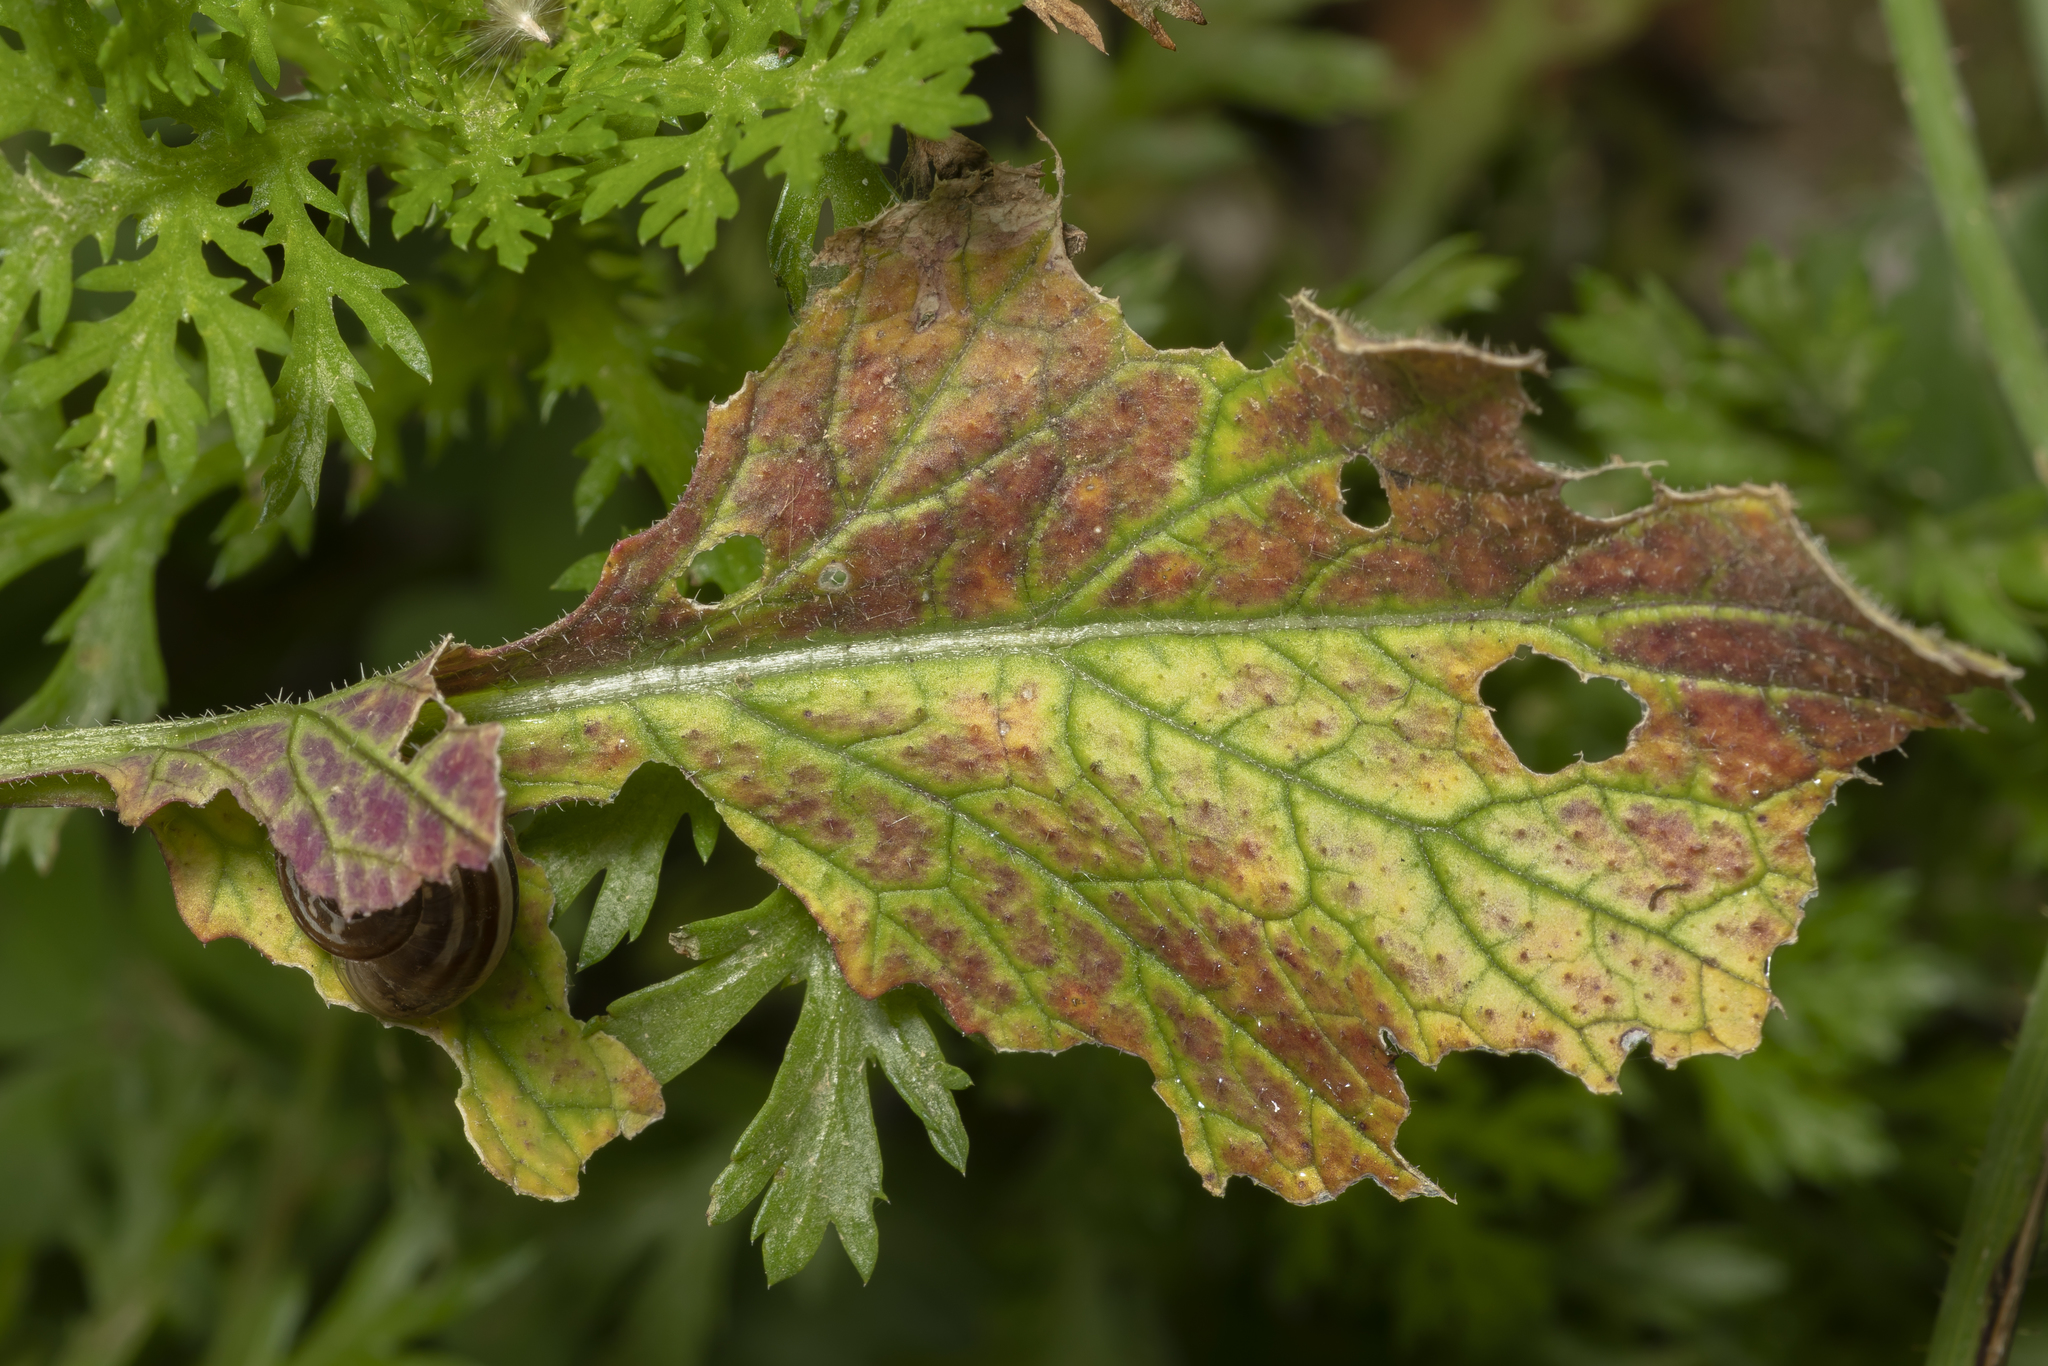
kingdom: Plantae
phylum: Tracheophyta
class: Magnoliopsida
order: Brassicales
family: Brassicaceae
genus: Sinapis
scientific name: Sinapis alba
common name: White mustard
